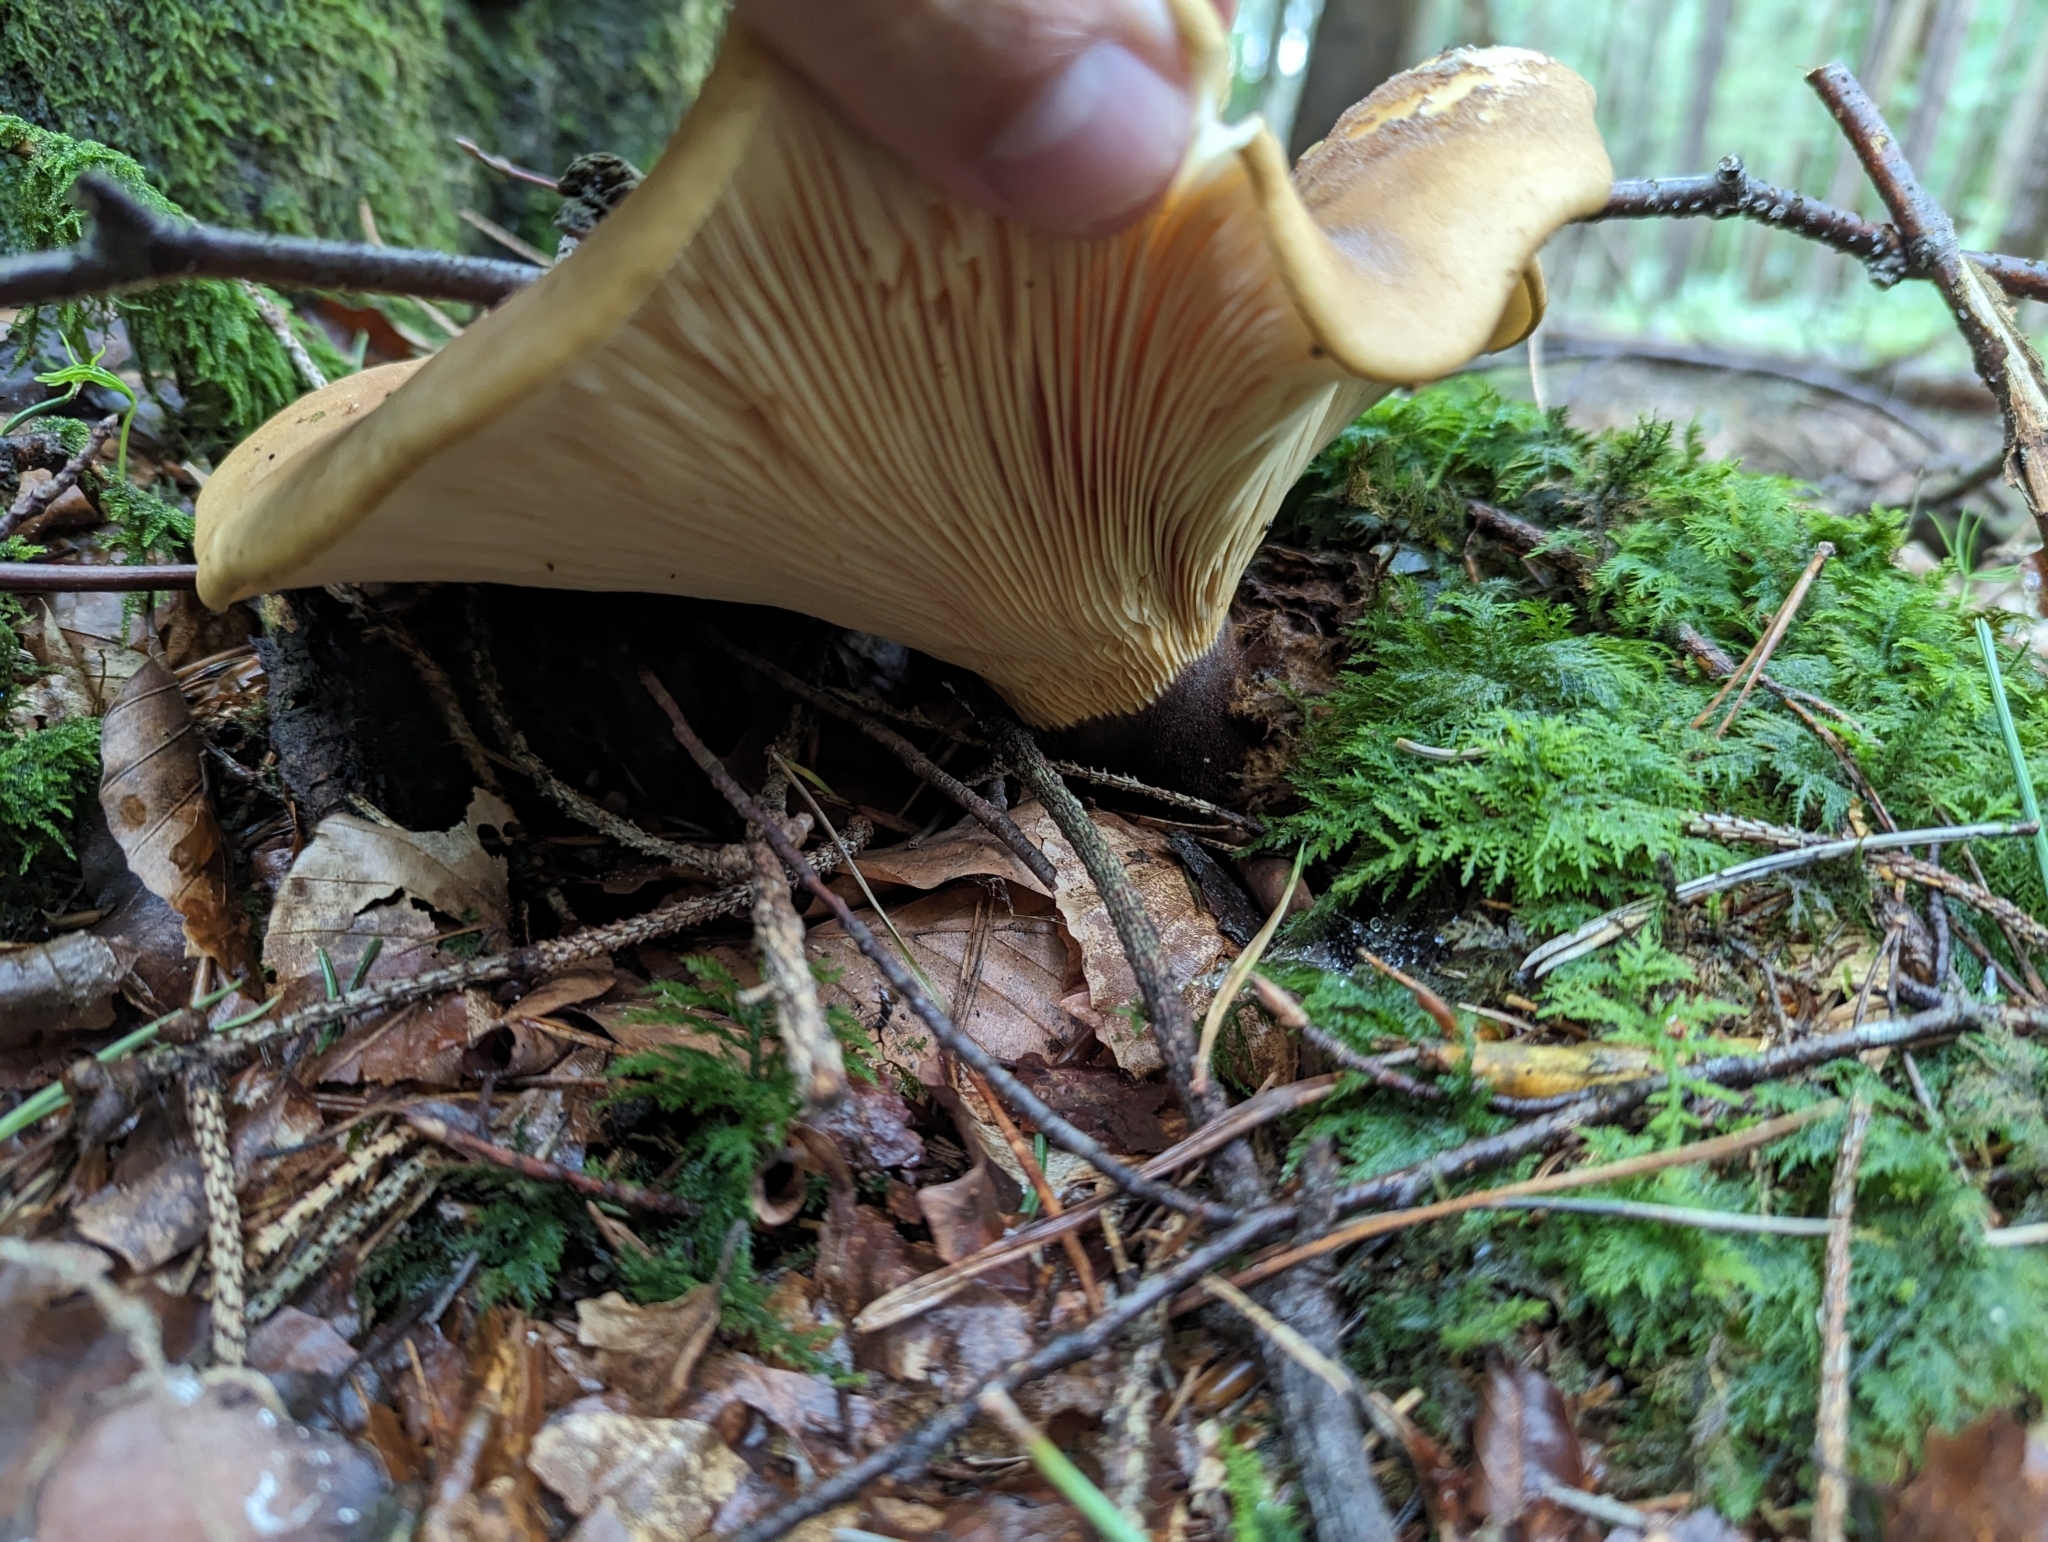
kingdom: Fungi
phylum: Basidiomycota
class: Agaricomycetes
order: Boletales
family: Tapinellaceae
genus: Tapinella
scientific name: Tapinella atrotomentosa
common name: Velvet rollrim
